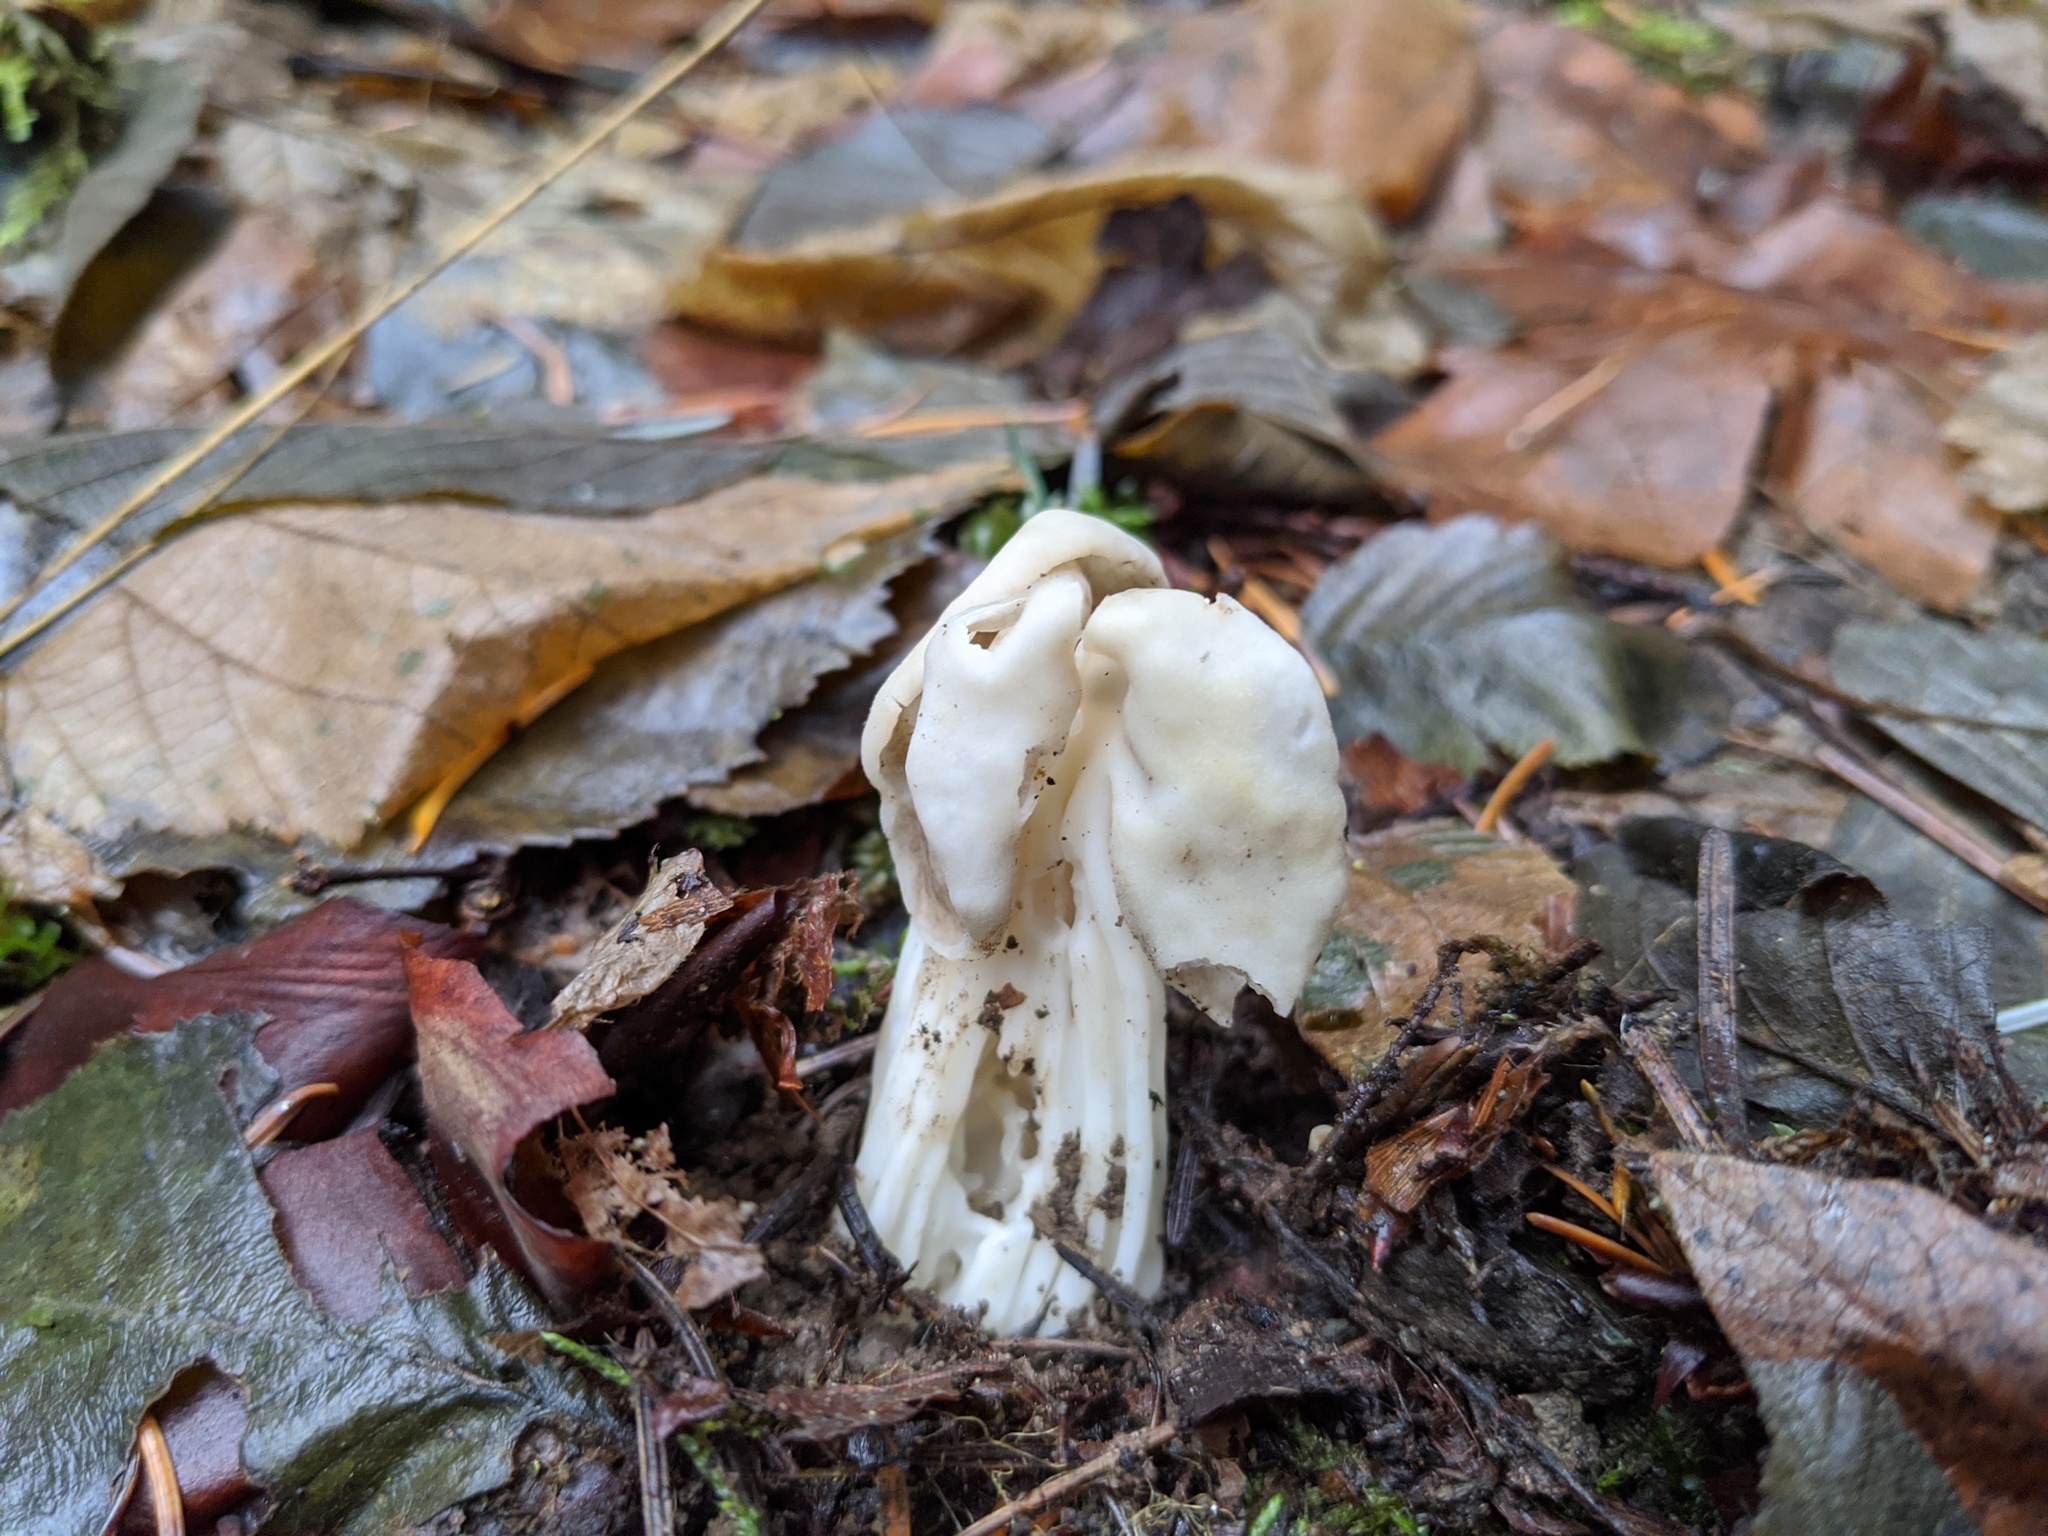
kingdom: Fungi
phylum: Ascomycota
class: Pezizomycetes
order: Pezizales
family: Helvellaceae
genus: Helvella
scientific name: Helvella crispa
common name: White saddle
